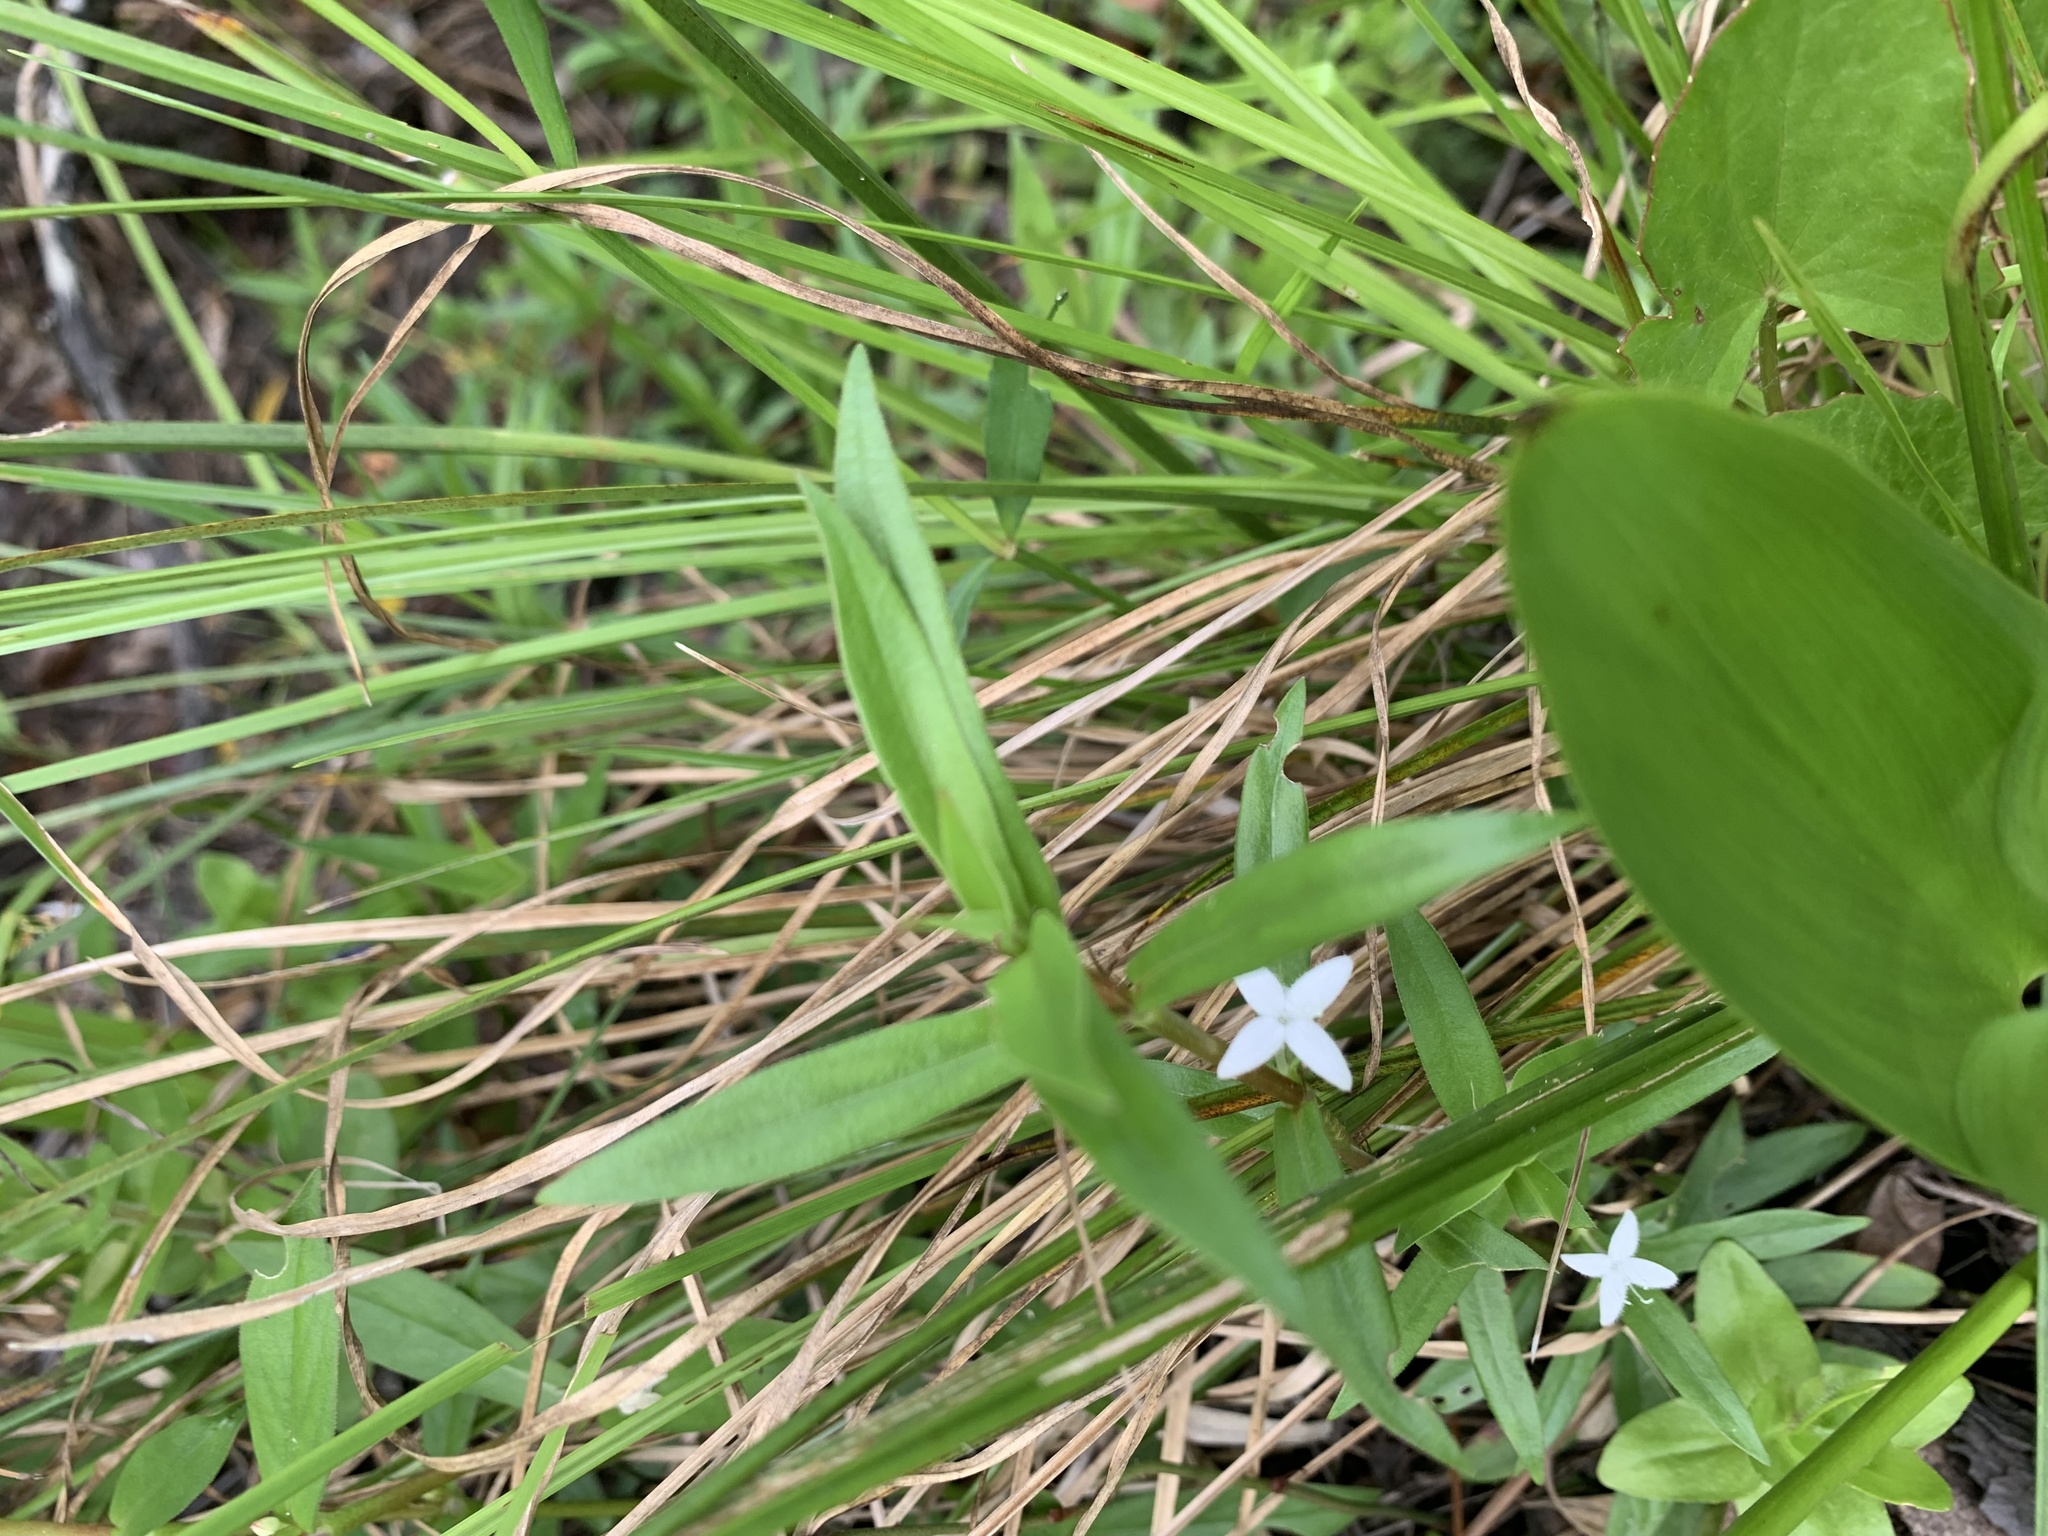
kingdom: Plantae
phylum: Tracheophyta
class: Magnoliopsida
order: Gentianales
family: Rubiaceae
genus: Diodia
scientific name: Diodia virginiana
